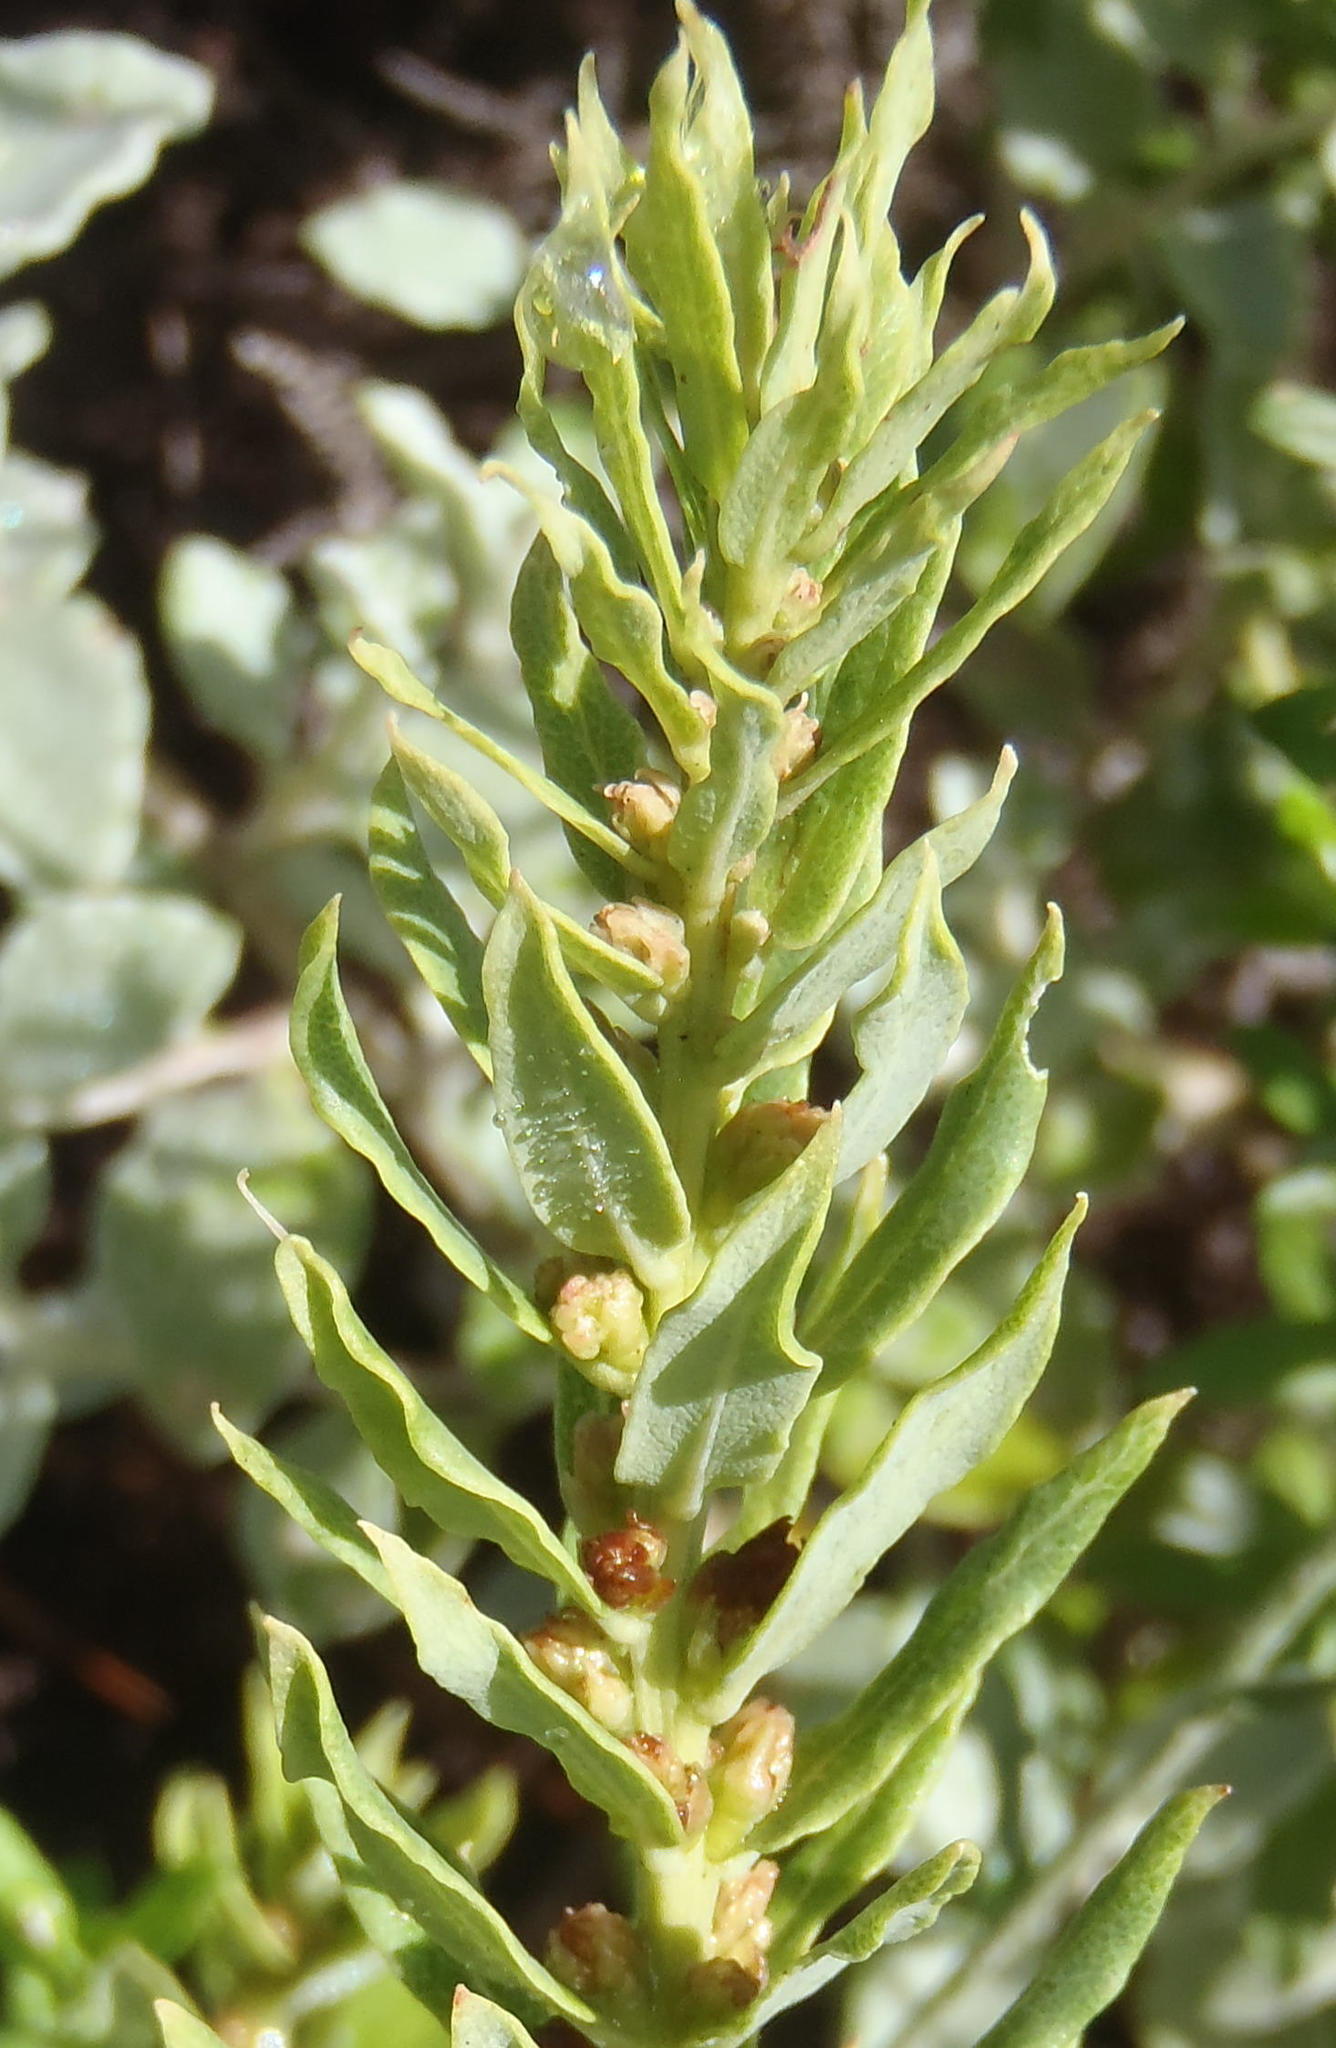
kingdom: Plantae
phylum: Tracheophyta
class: Magnoliopsida
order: Fagales
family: Myricaceae
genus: Morella
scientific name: Morella humilis
